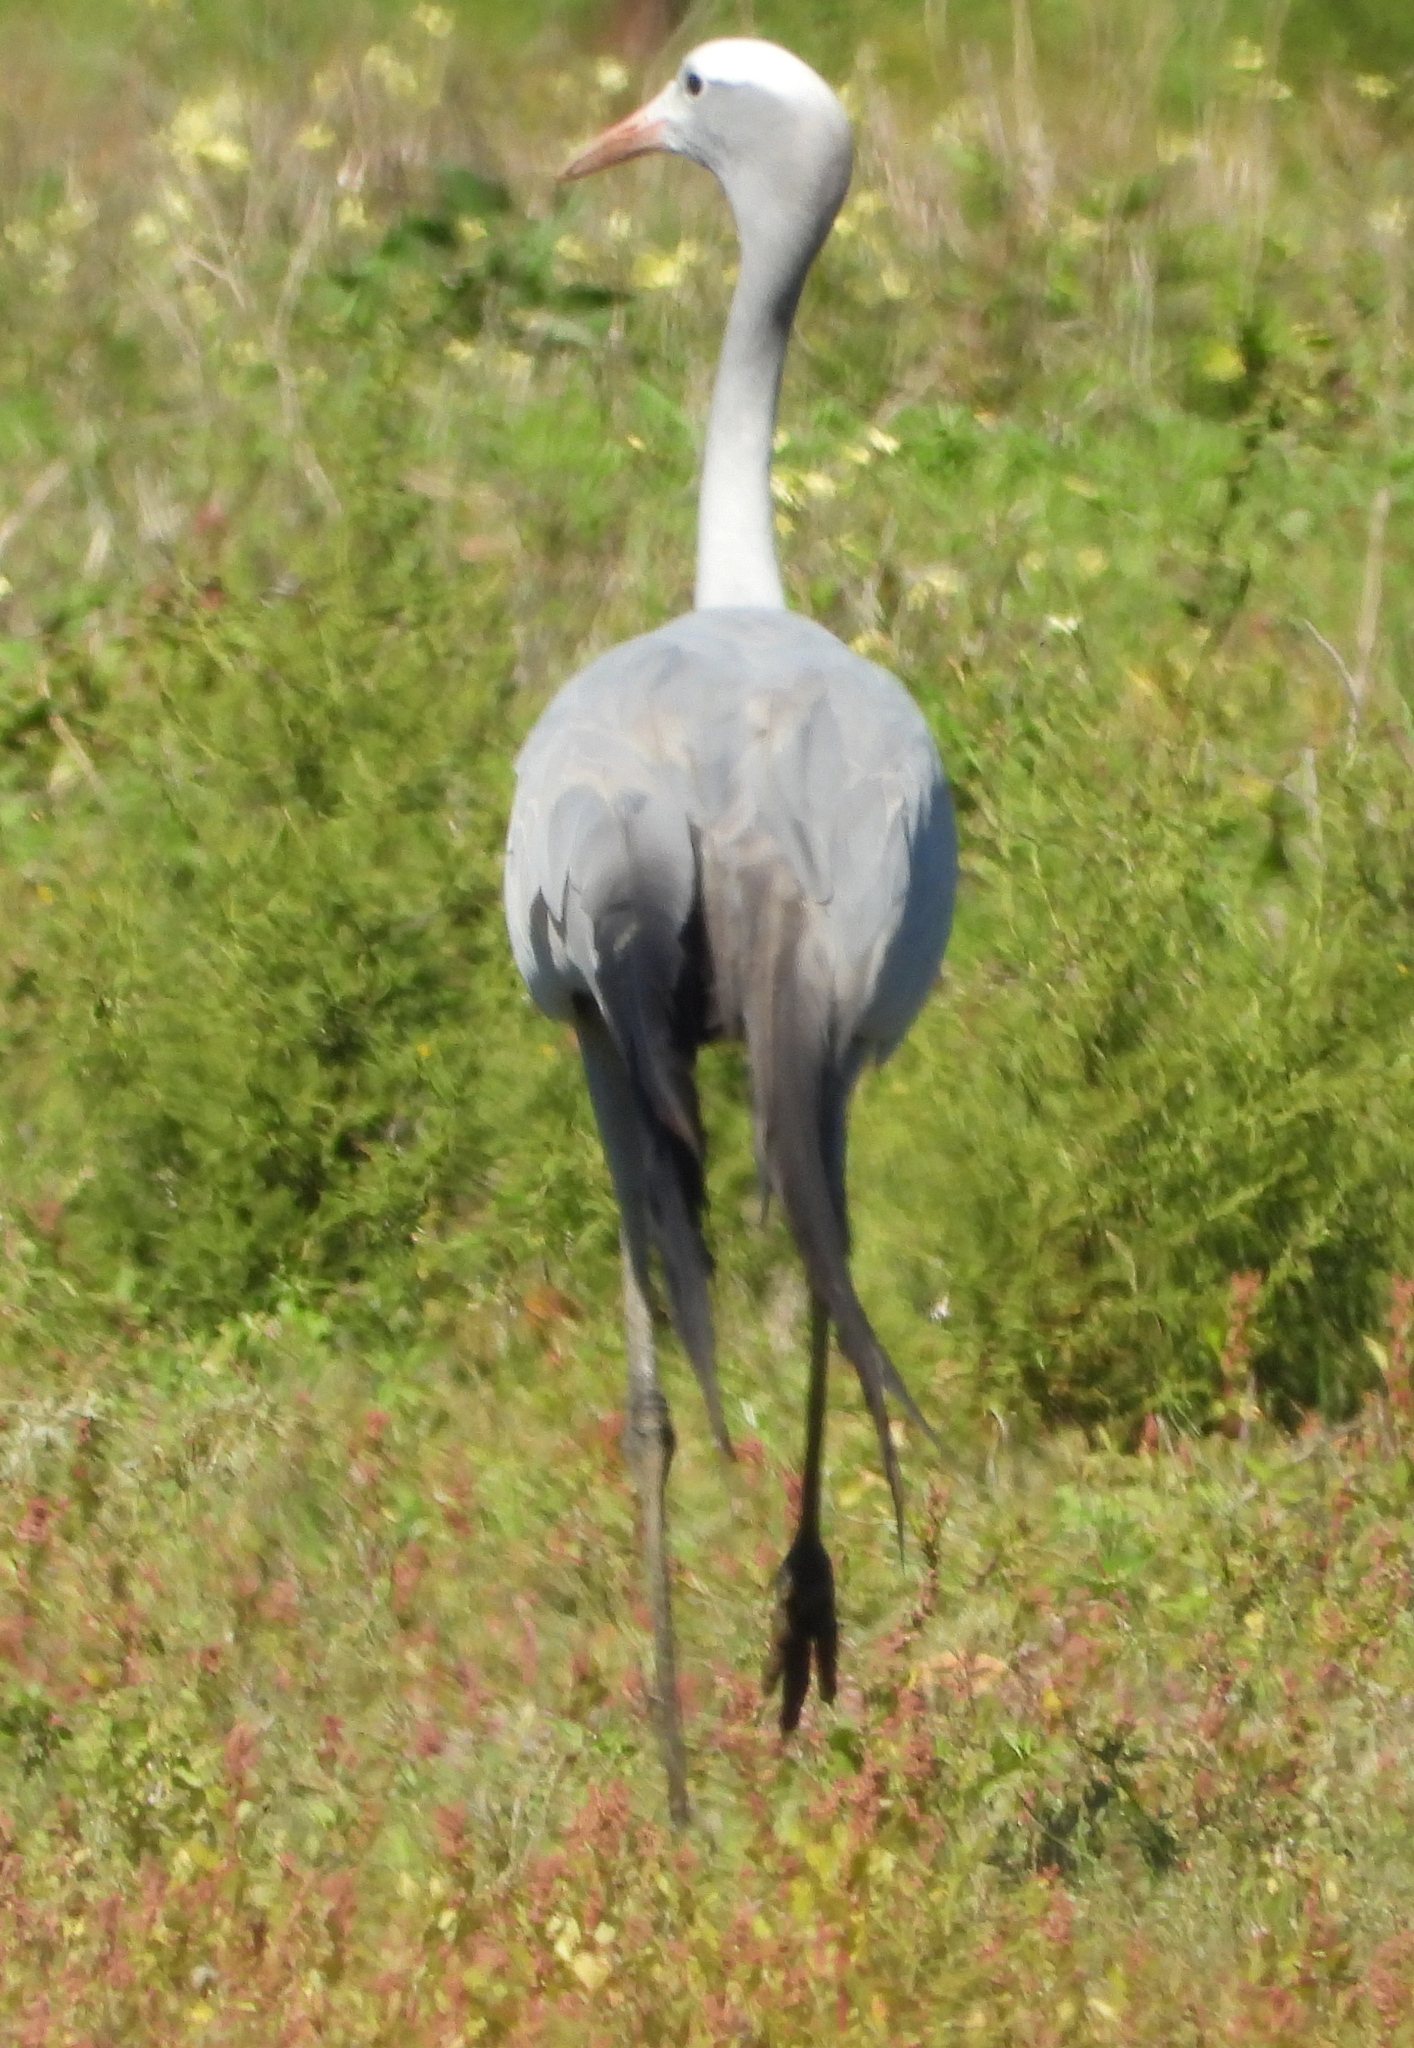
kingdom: Animalia
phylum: Chordata
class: Aves
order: Gruiformes
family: Gruidae
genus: Anthropoides
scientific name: Anthropoides paradiseus
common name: Blue crane
